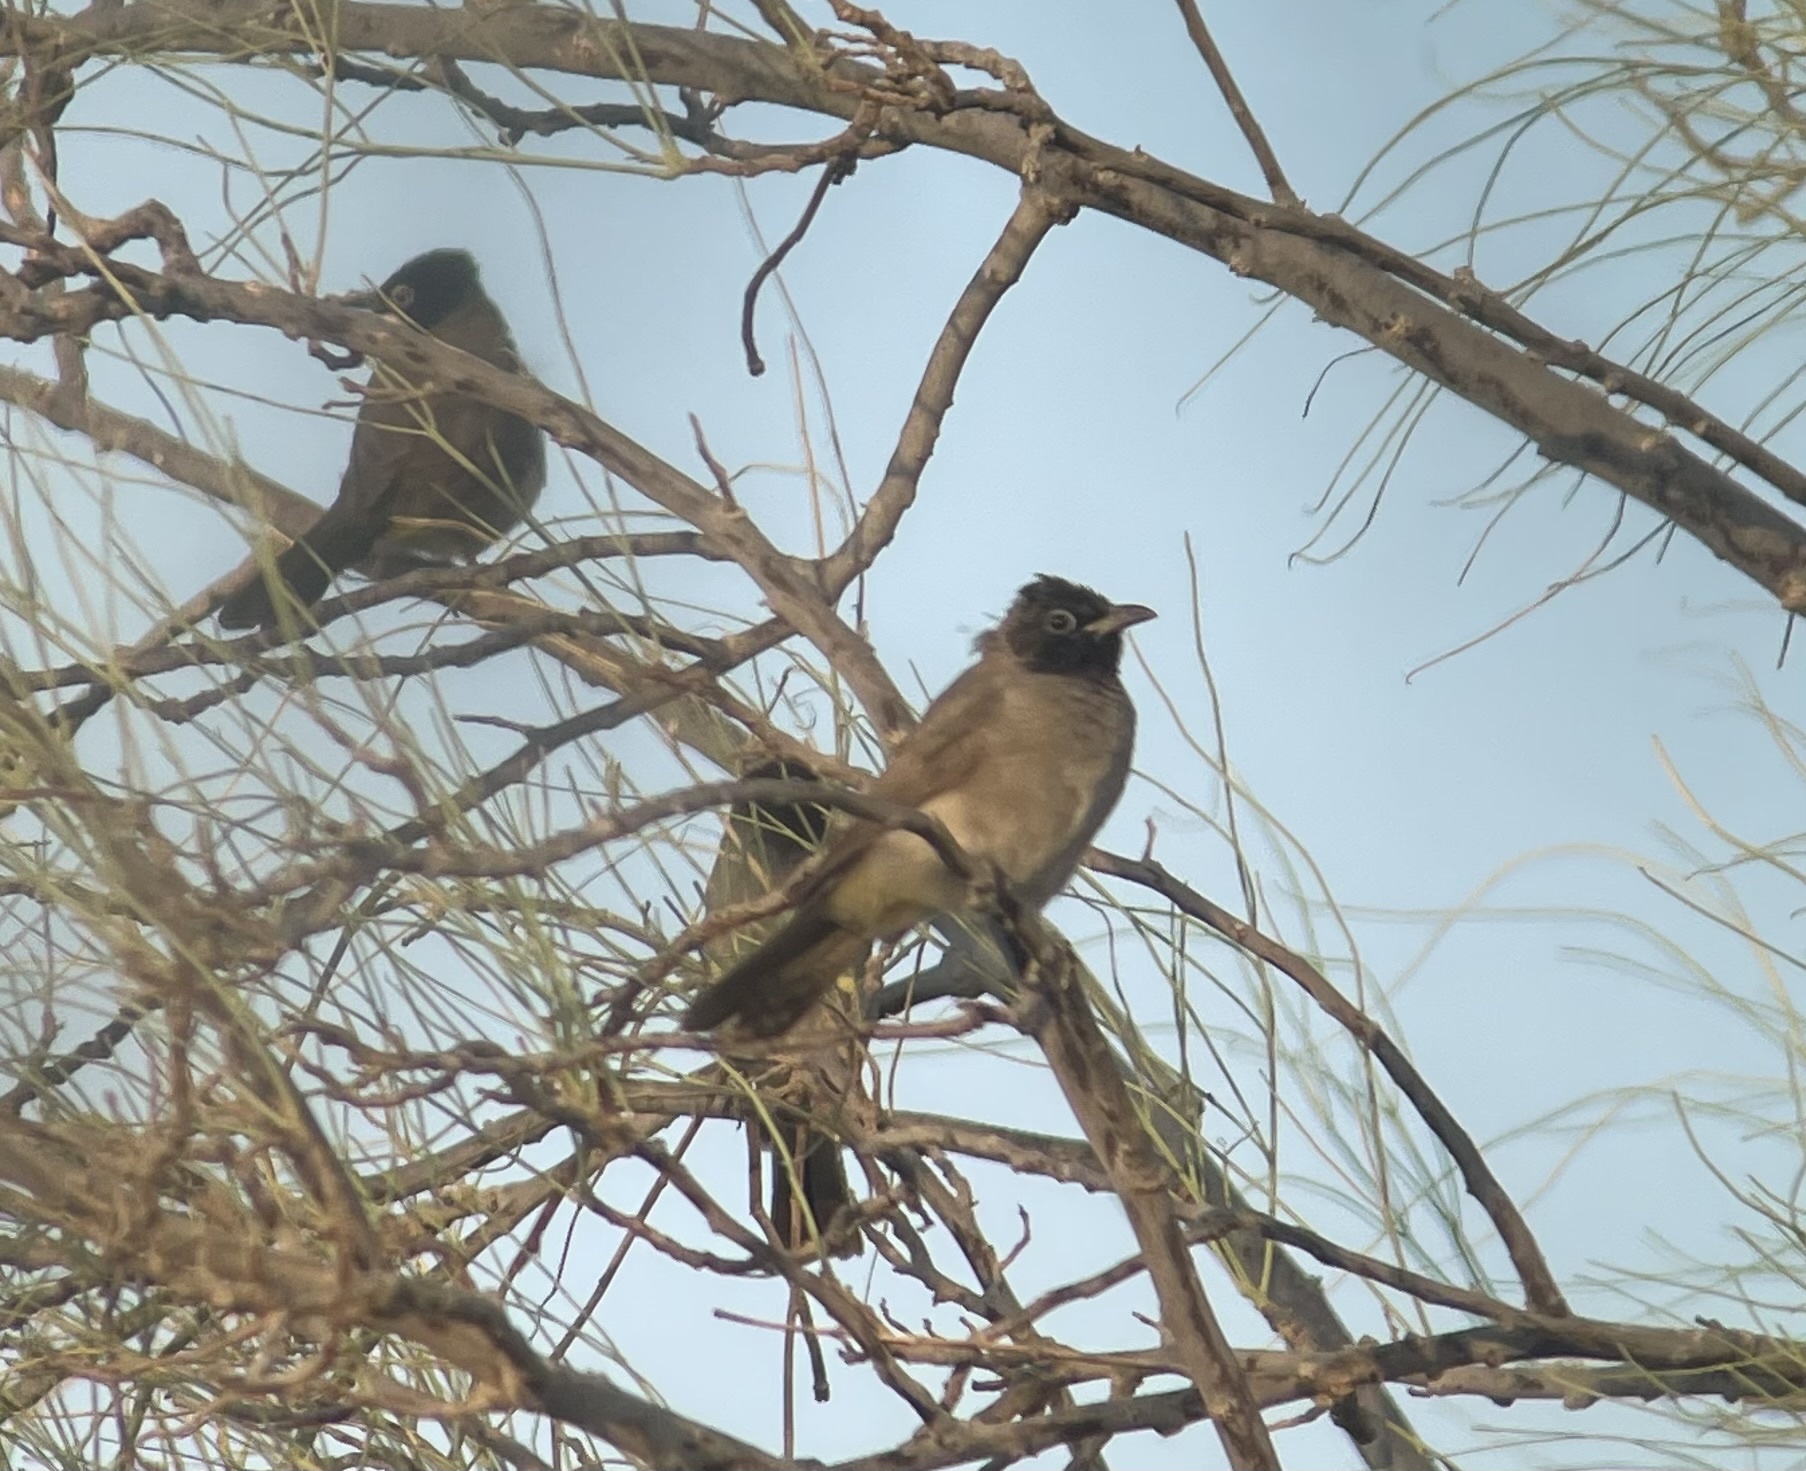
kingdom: Animalia
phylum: Chordata
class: Aves
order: Passeriformes
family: Pycnonotidae
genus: Pycnonotus
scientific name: Pycnonotus xanthopygos
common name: White-spectacled bulbul
